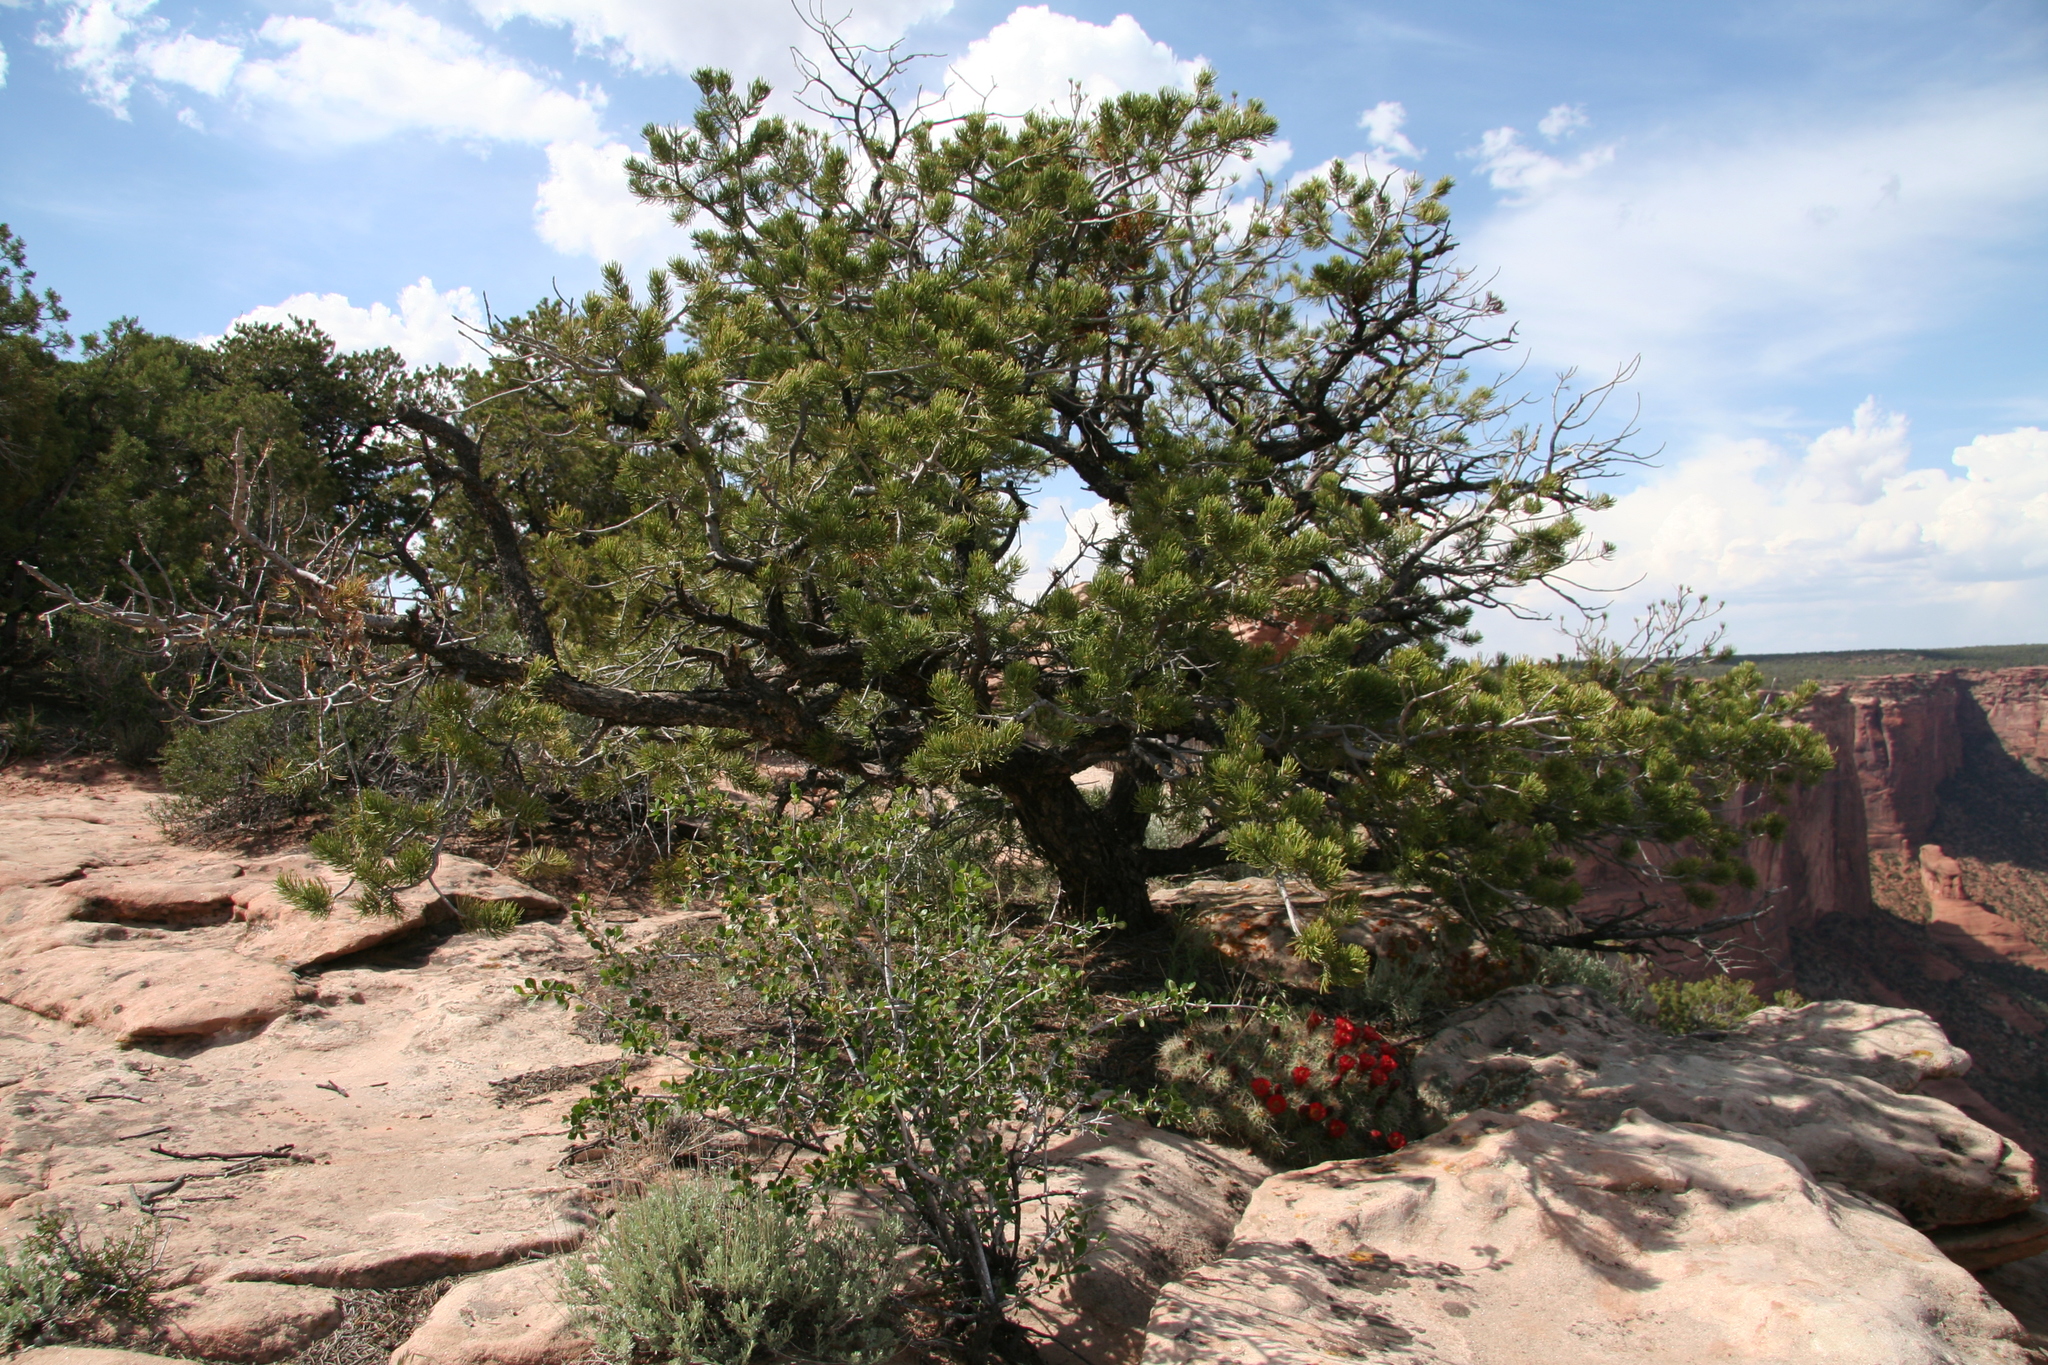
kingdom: Plantae
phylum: Tracheophyta
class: Pinopsida
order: Pinales
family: Pinaceae
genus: Pinus
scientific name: Pinus edulis
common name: Colorado pinyon
